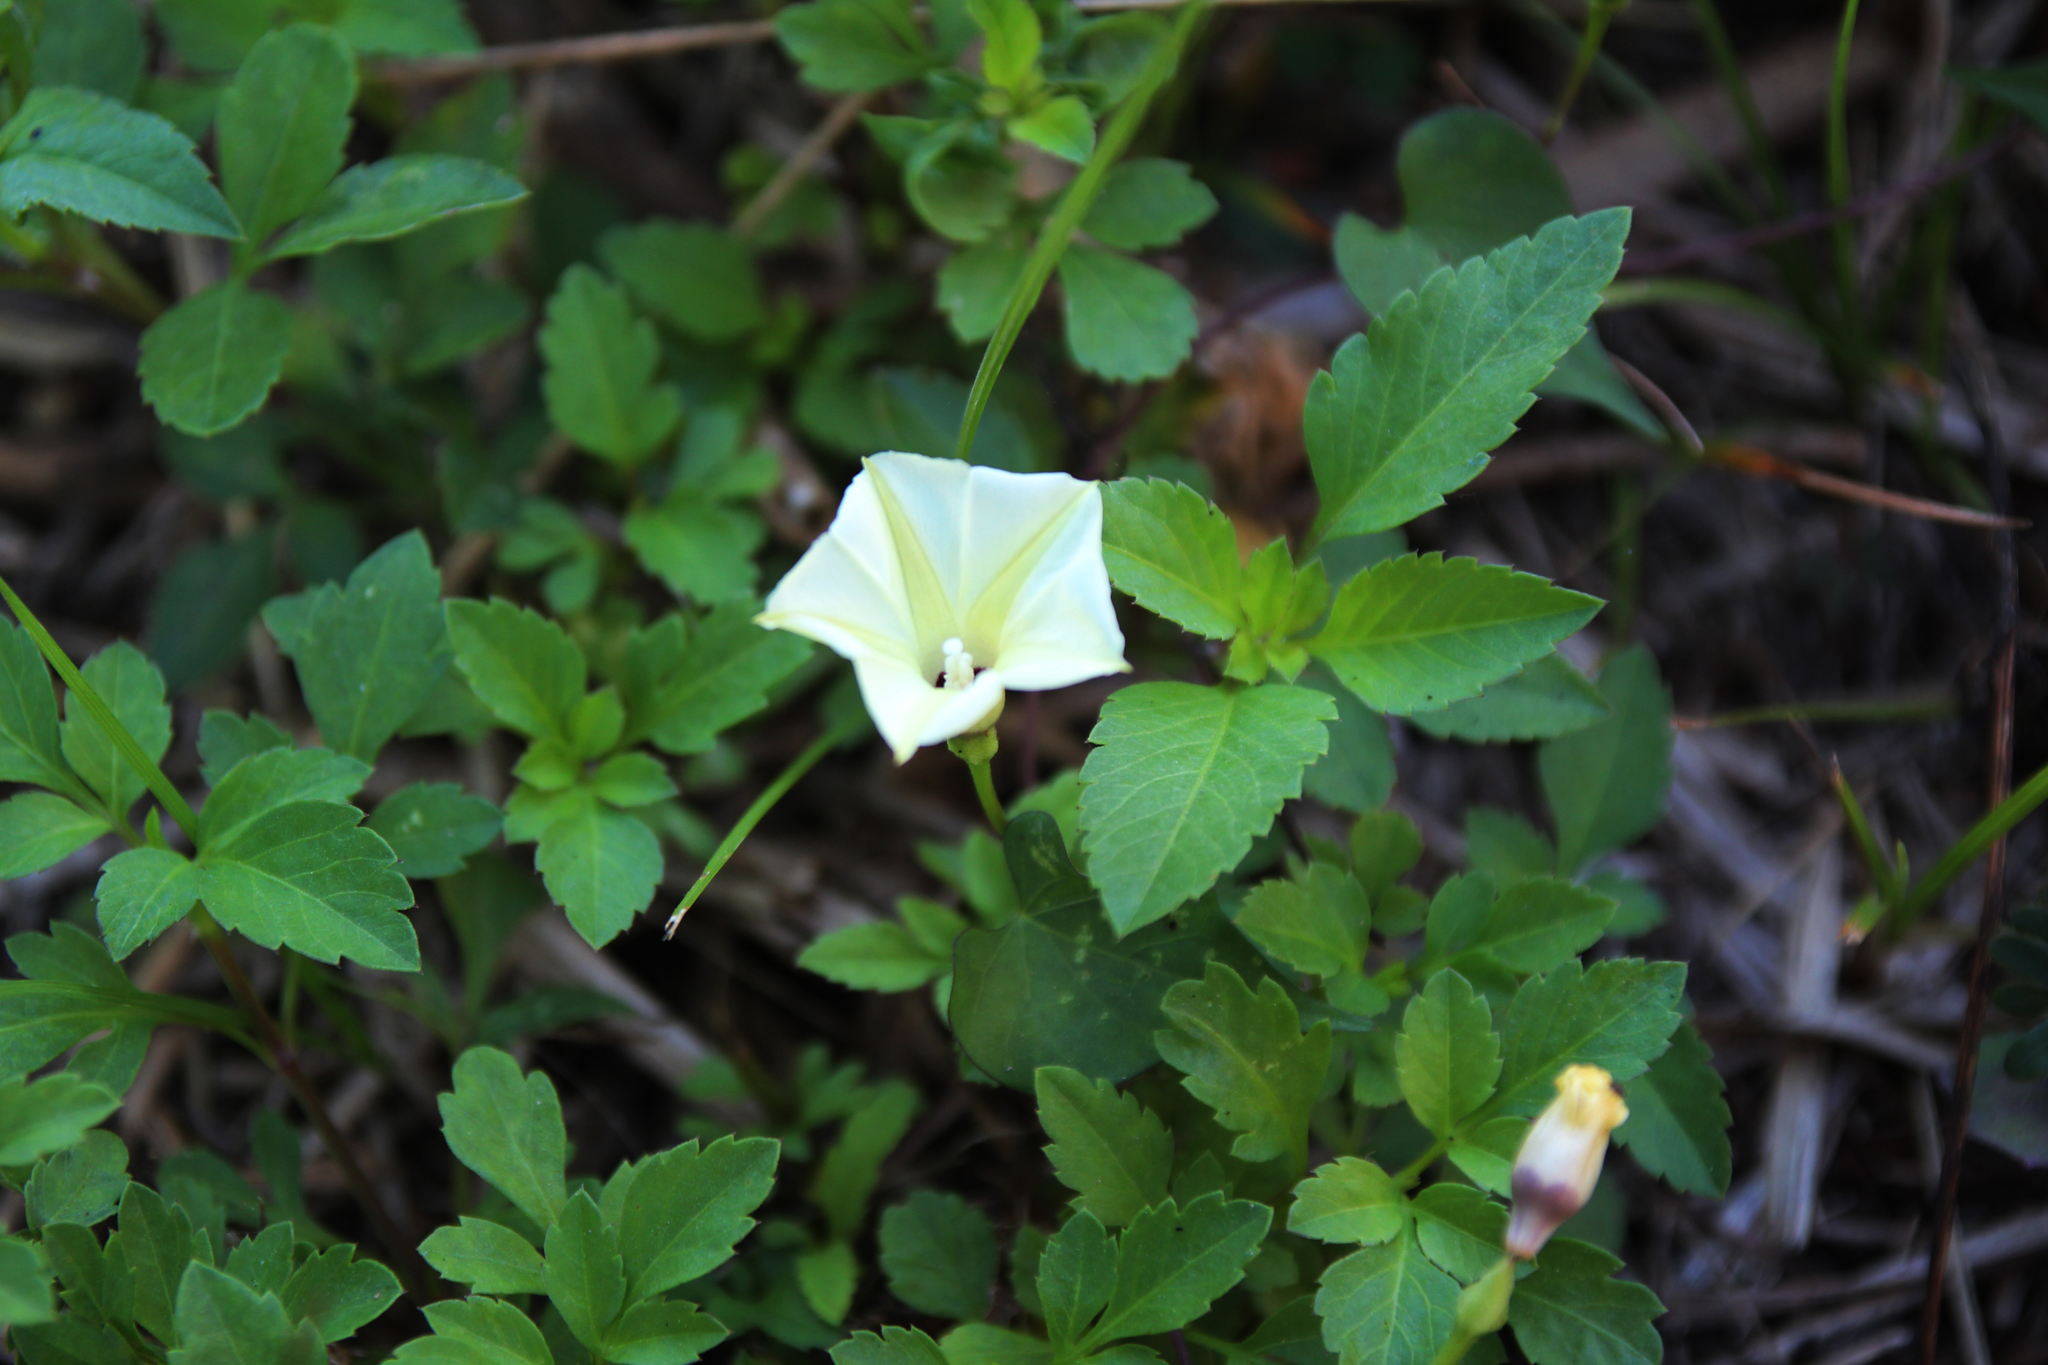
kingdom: Plantae
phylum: Tracheophyta
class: Magnoliopsida
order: Solanales
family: Convolvulaceae
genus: Ipomoea
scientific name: Ipomoea obscura
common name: Obscure morning-glory
